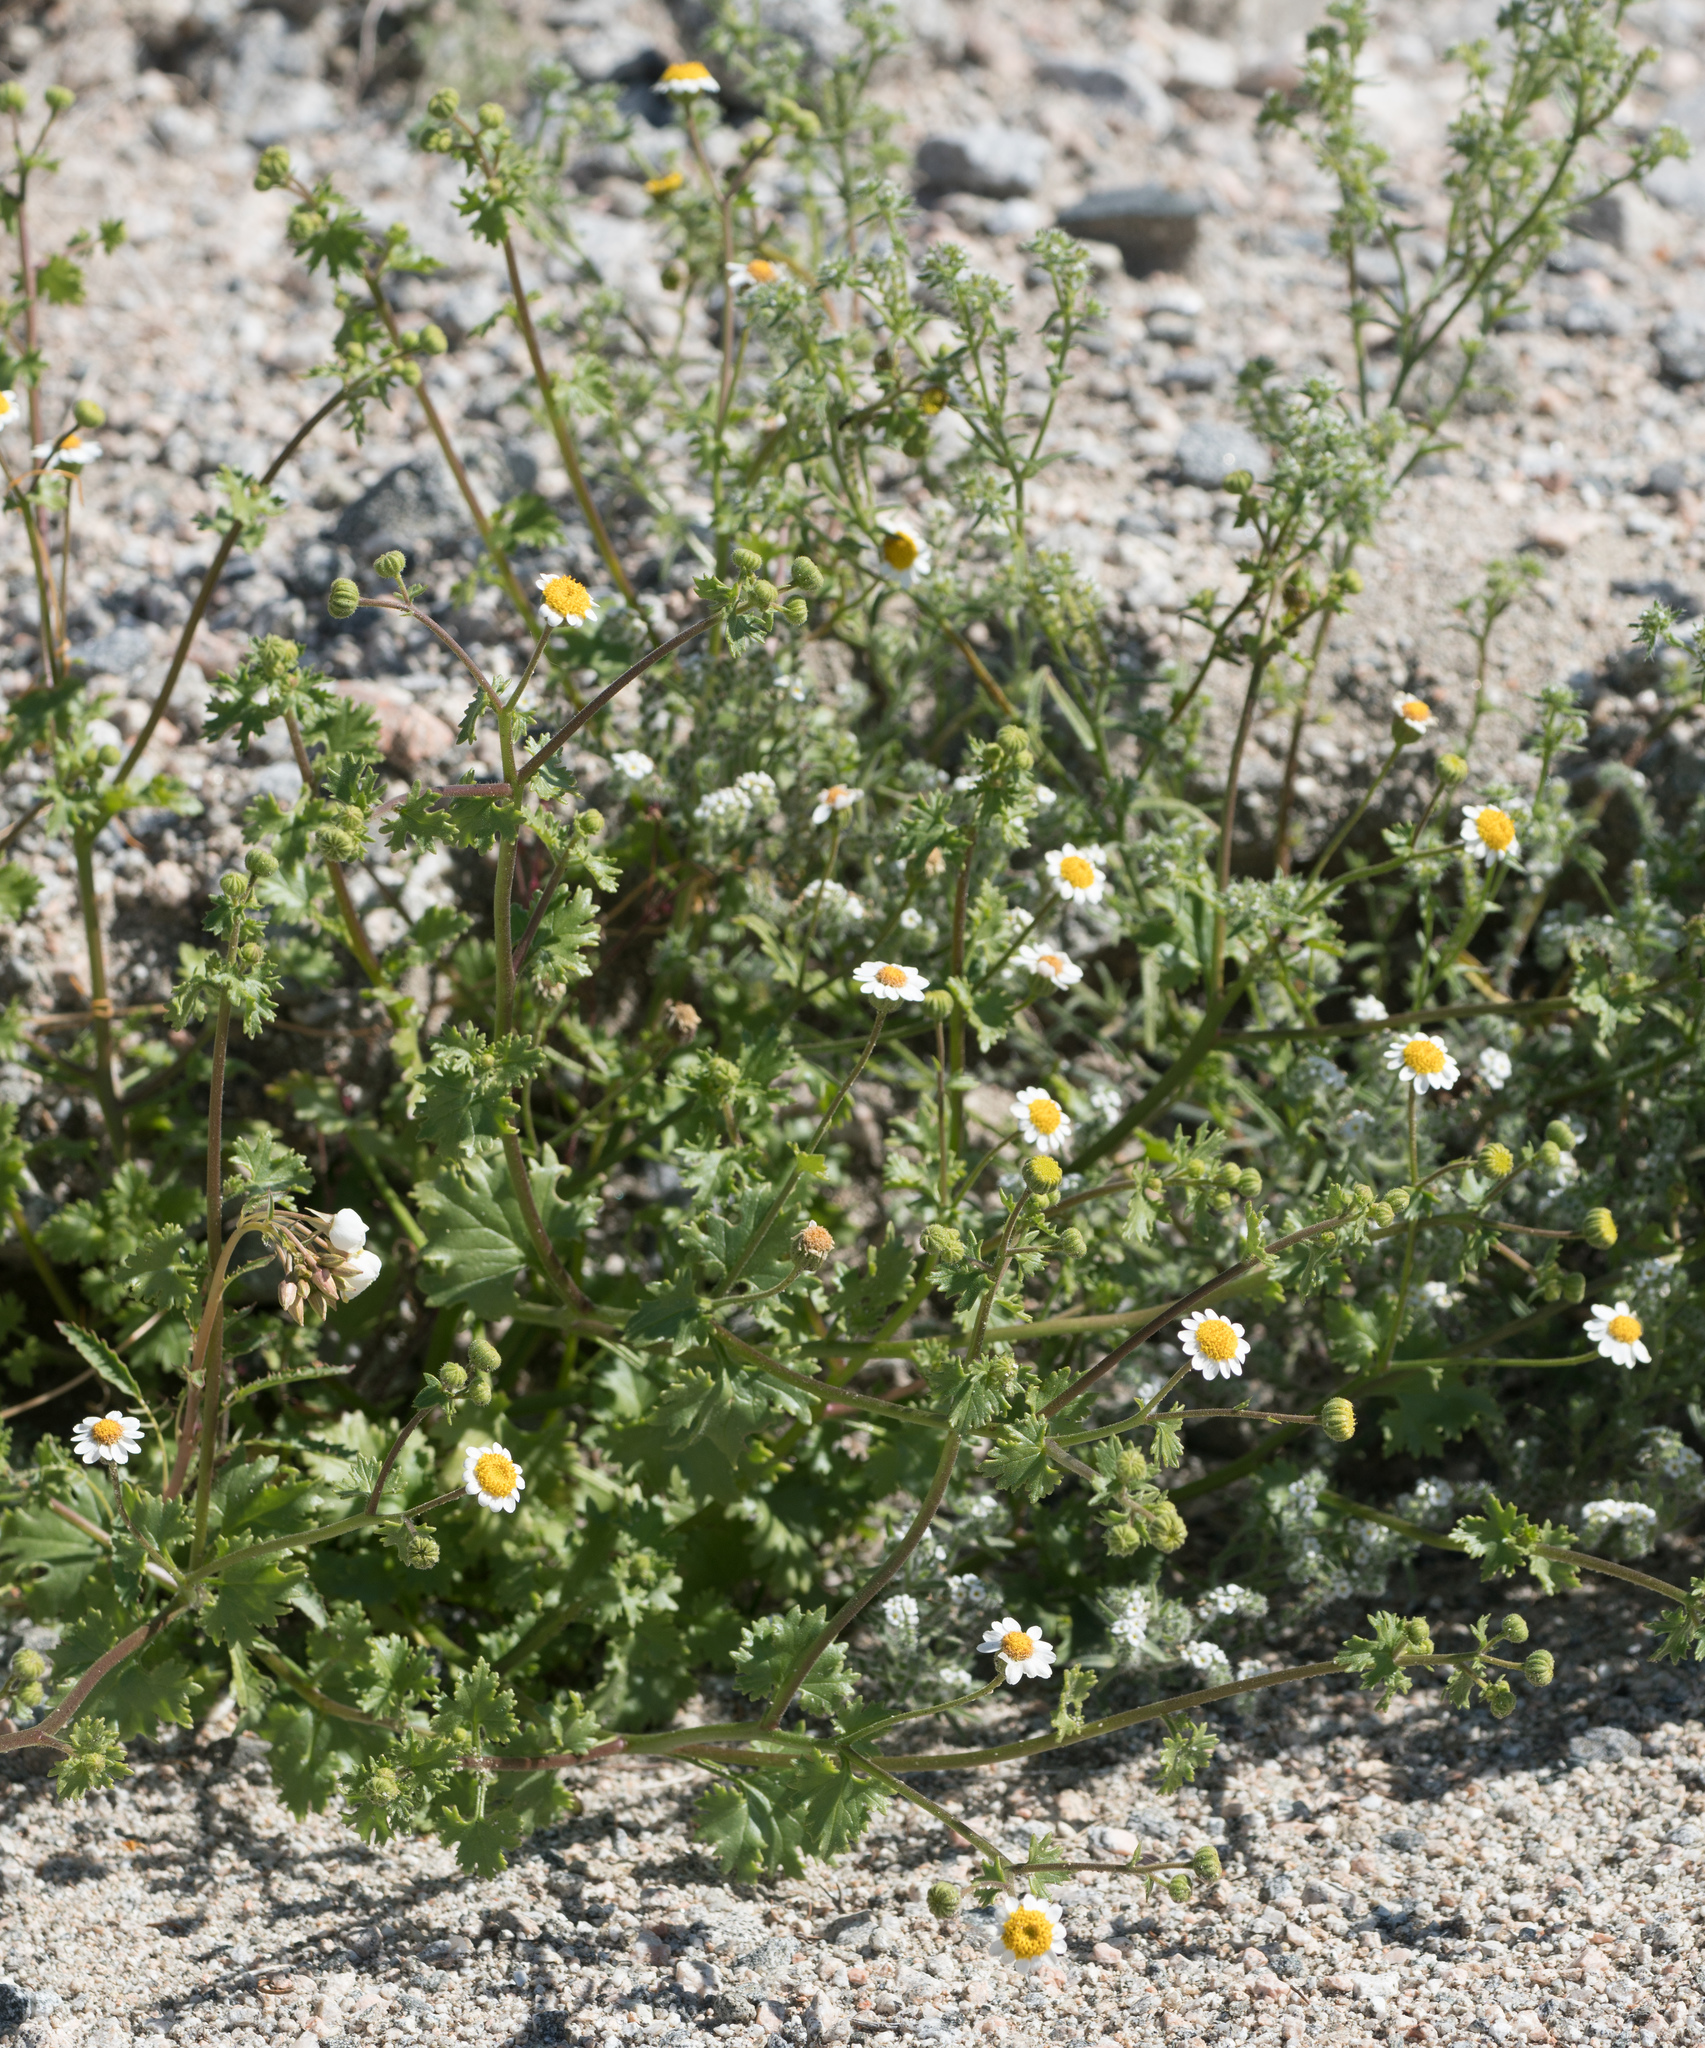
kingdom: Plantae
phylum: Tracheophyta
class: Magnoliopsida
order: Asterales
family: Asteraceae
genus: Laphamia
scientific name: Laphamia emoryi
